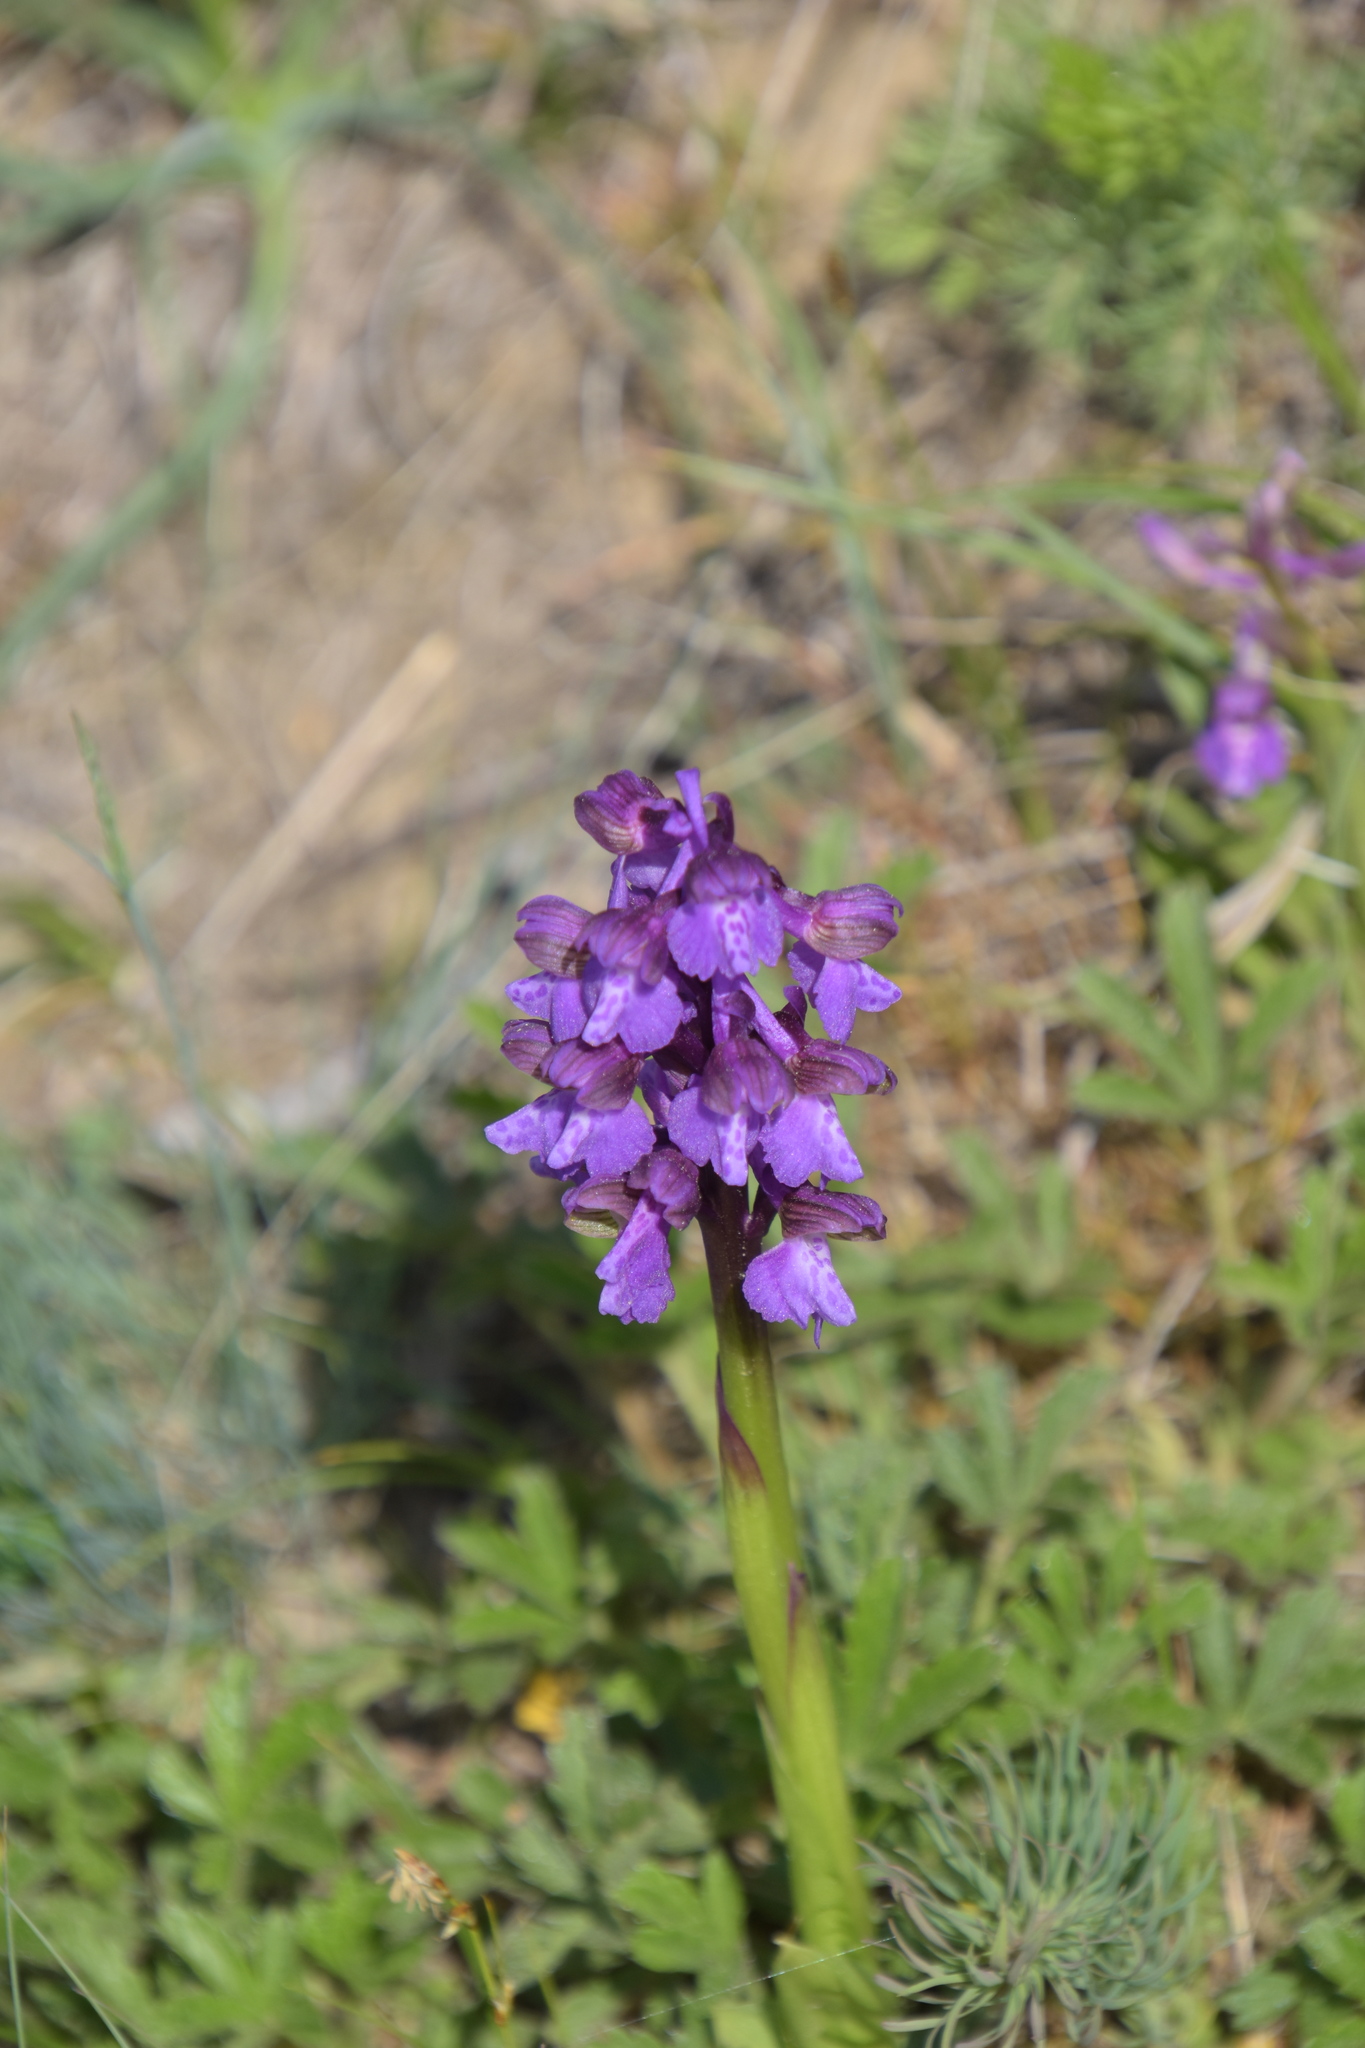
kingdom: Plantae
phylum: Tracheophyta
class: Liliopsida
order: Asparagales
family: Orchidaceae
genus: Anacamptis
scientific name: Anacamptis morio
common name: Green-winged orchid
